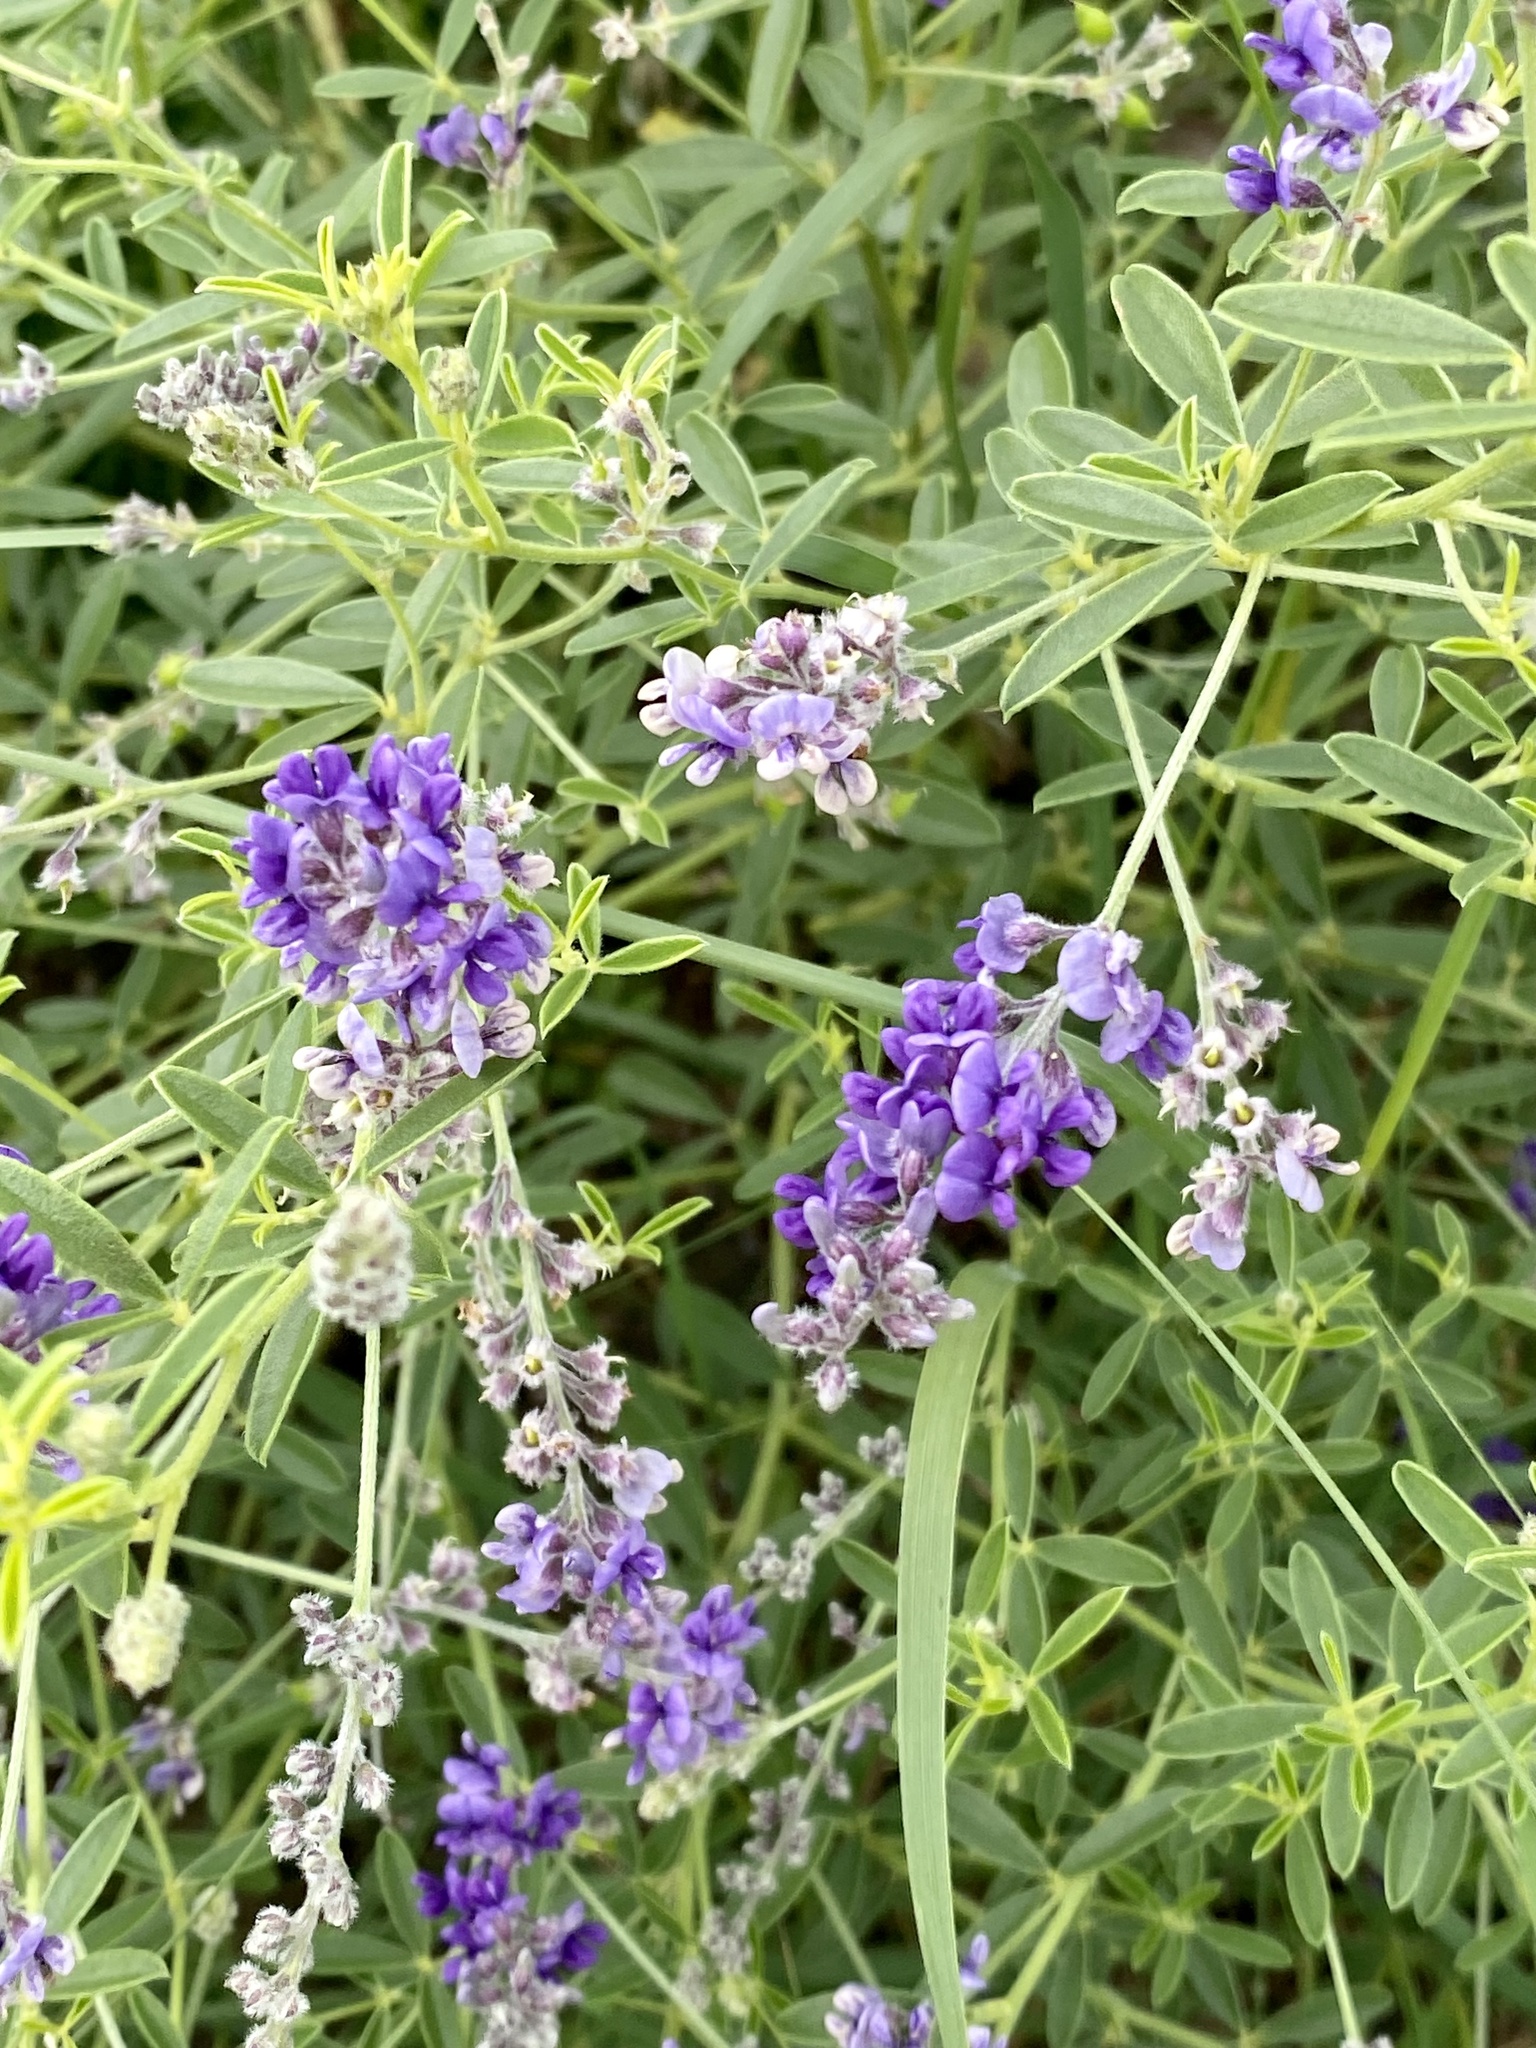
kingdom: Plantae
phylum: Tracheophyta
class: Magnoliopsida
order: Fabales
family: Fabaceae
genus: Pediomelum
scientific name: Pediomelum tenuiflorum
